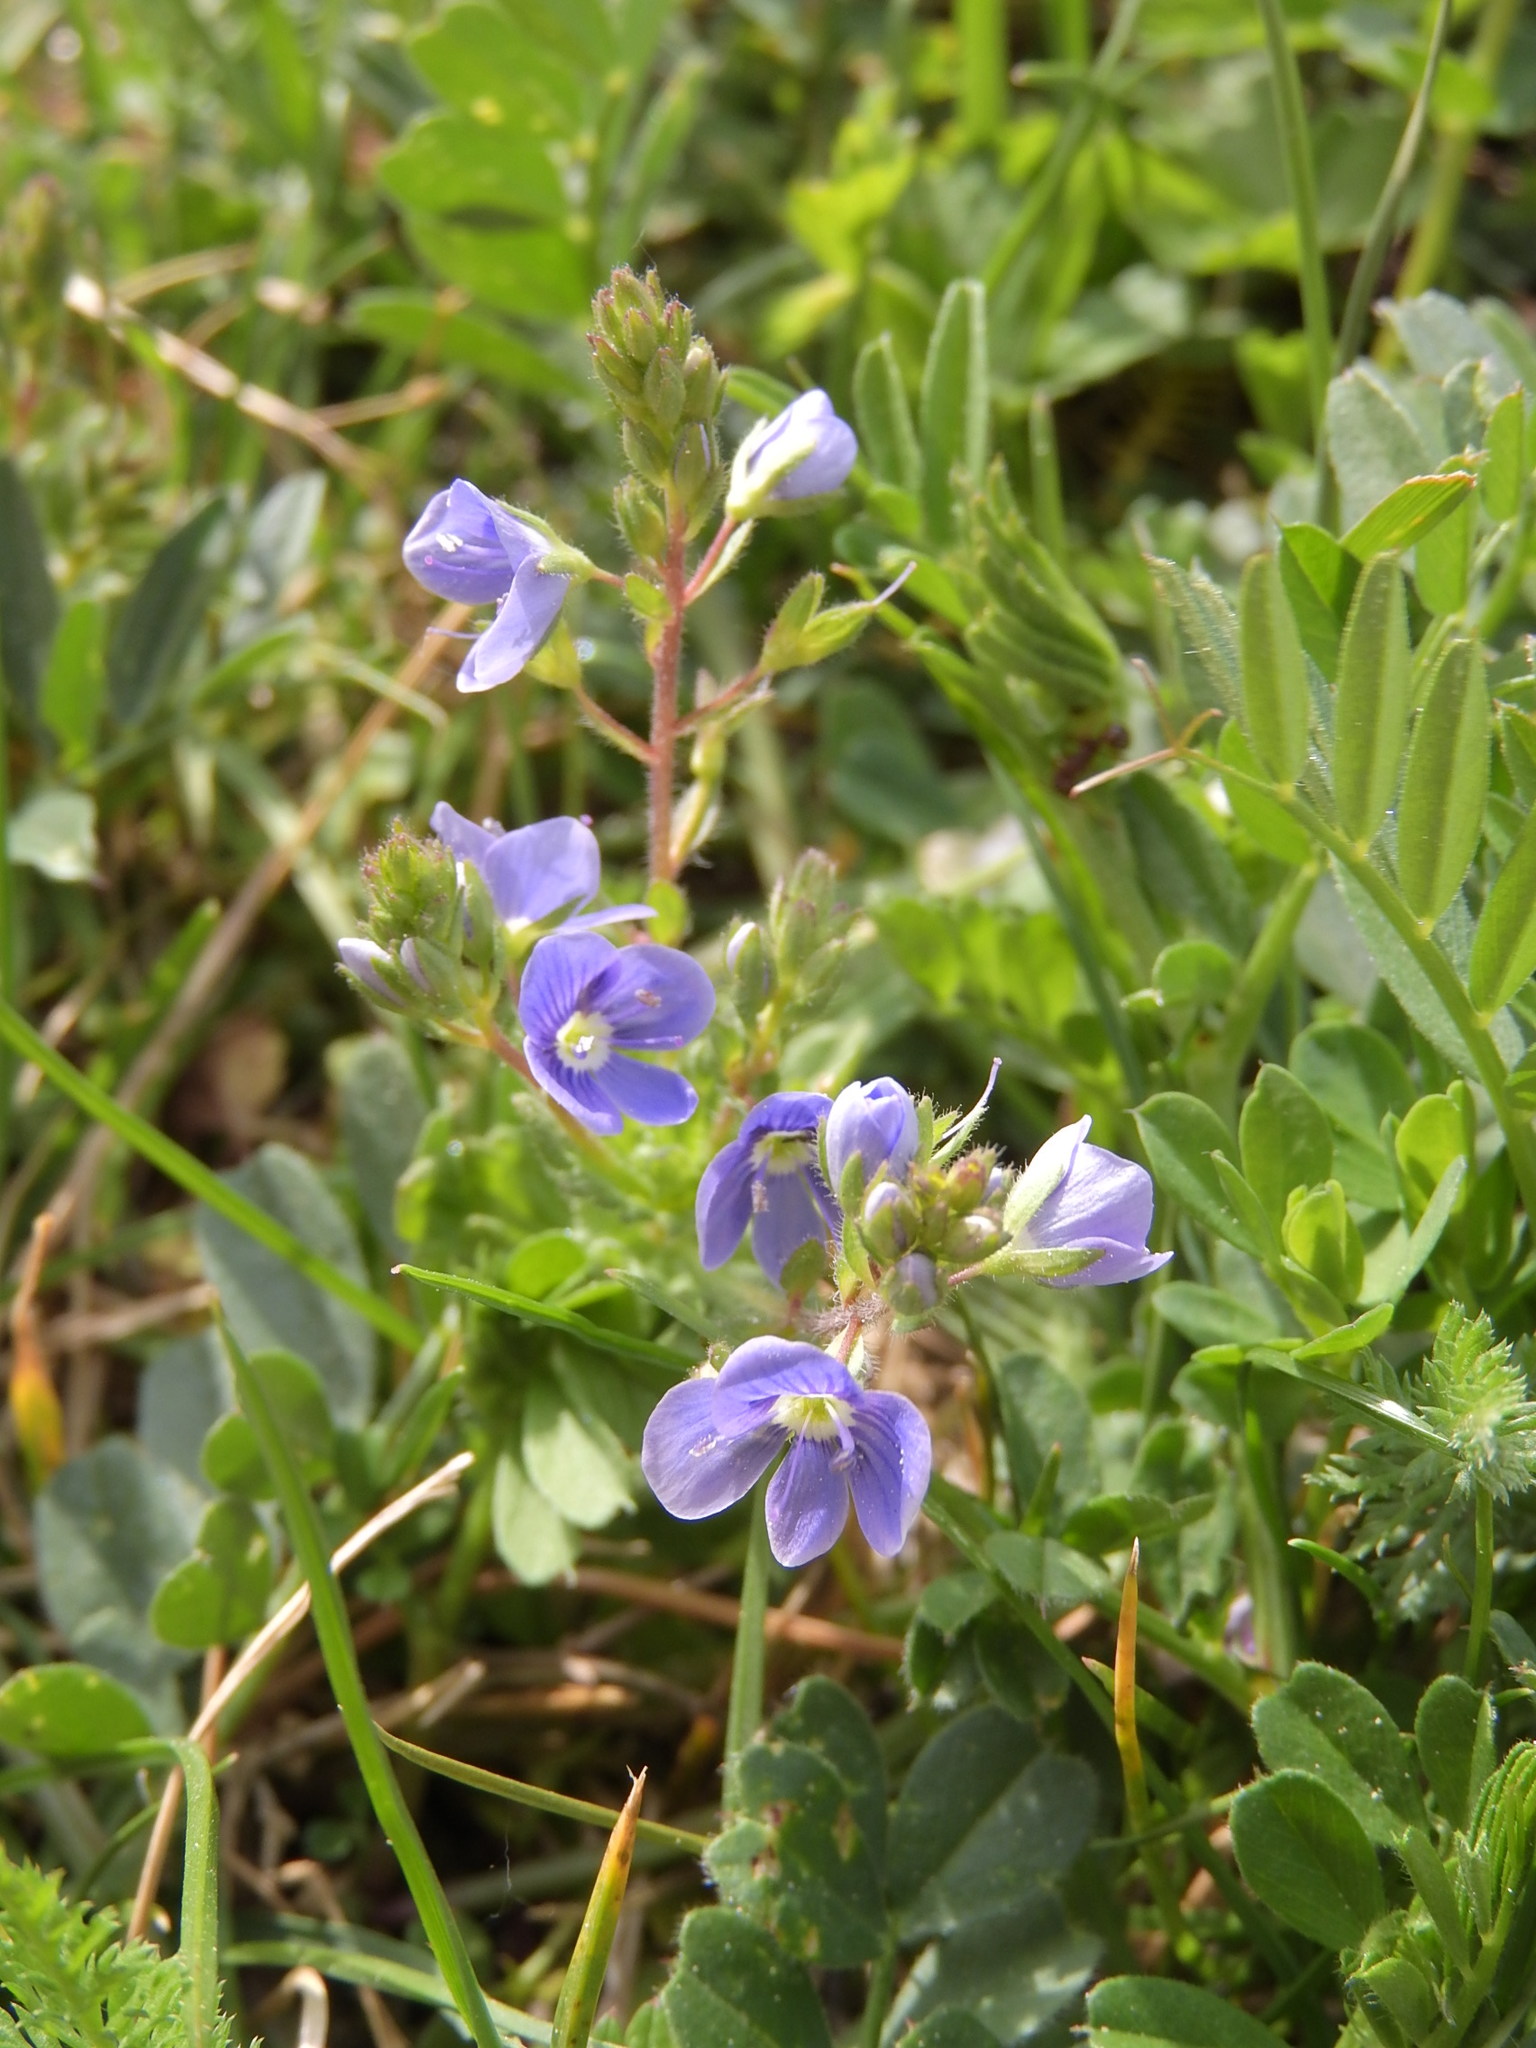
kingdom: Plantae
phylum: Tracheophyta
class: Magnoliopsida
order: Lamiales
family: Plantaginaceae
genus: Veronica
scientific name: Veronica chamaedrys
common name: Germander speedwell
